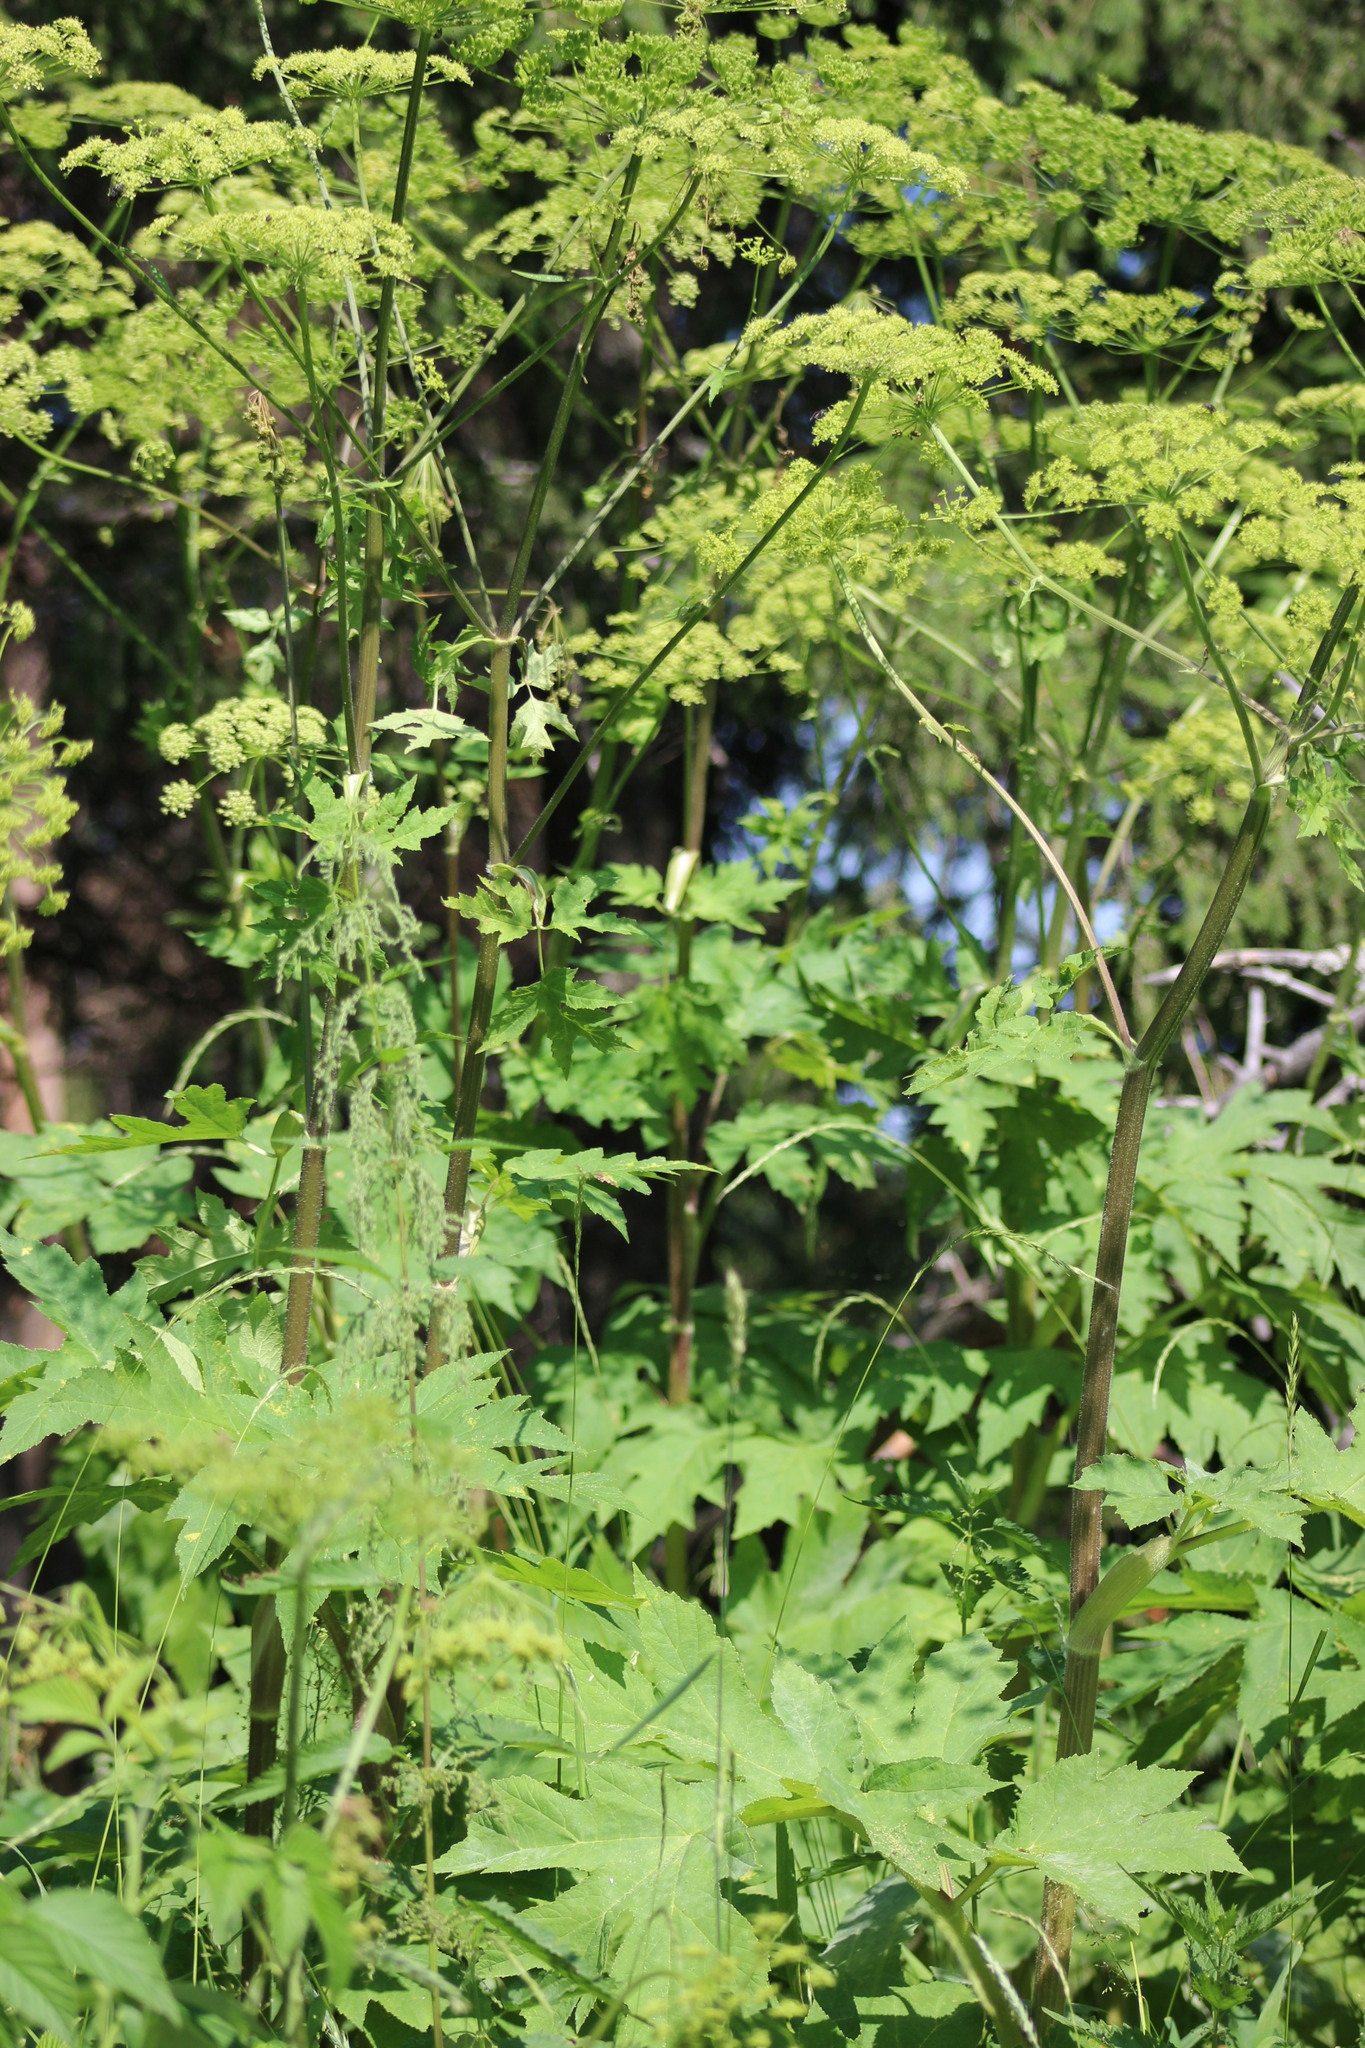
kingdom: Plantae
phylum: Tracheophyta
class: Magnoliopsida
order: Apiales
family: Apiaceae
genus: Heracleum
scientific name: Heracleum sphondylium
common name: Hogweed
